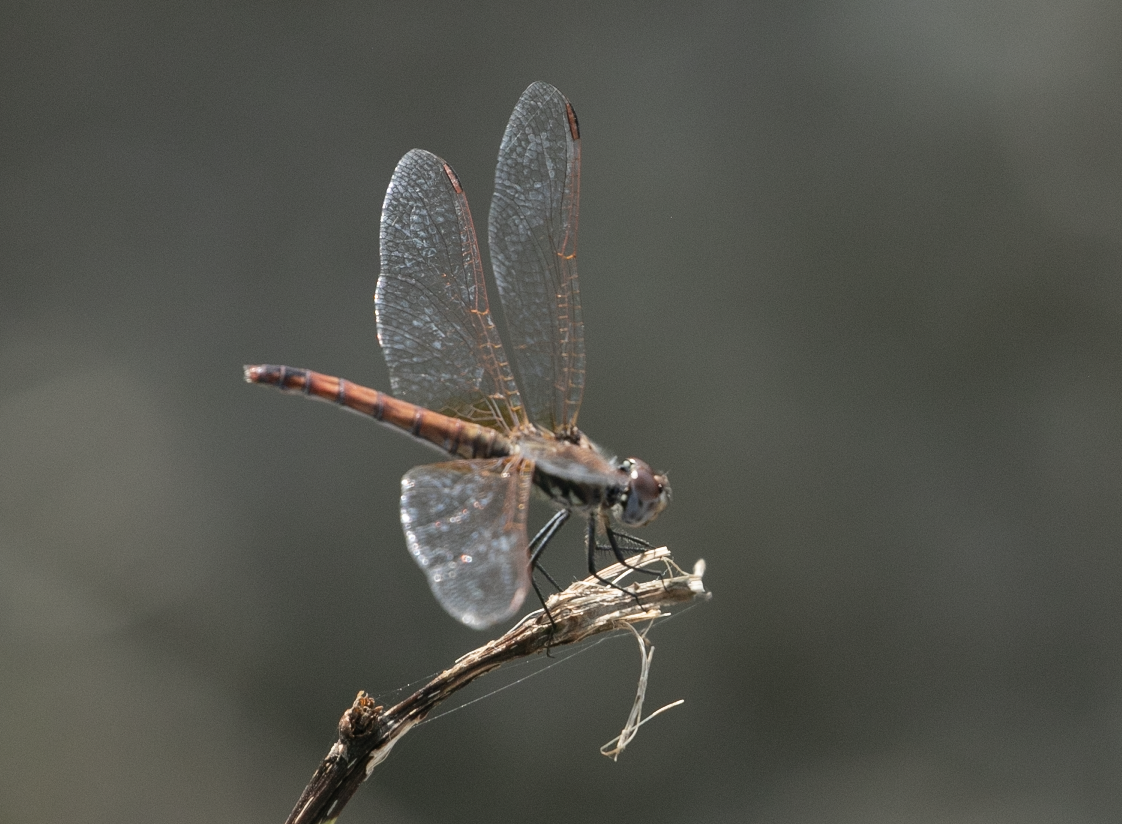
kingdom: Animalia
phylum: Arthropoda
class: Insecta
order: Odonata
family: Libellulidae
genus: Trithemis
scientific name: Trithemis annulata
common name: Violet dropwing
